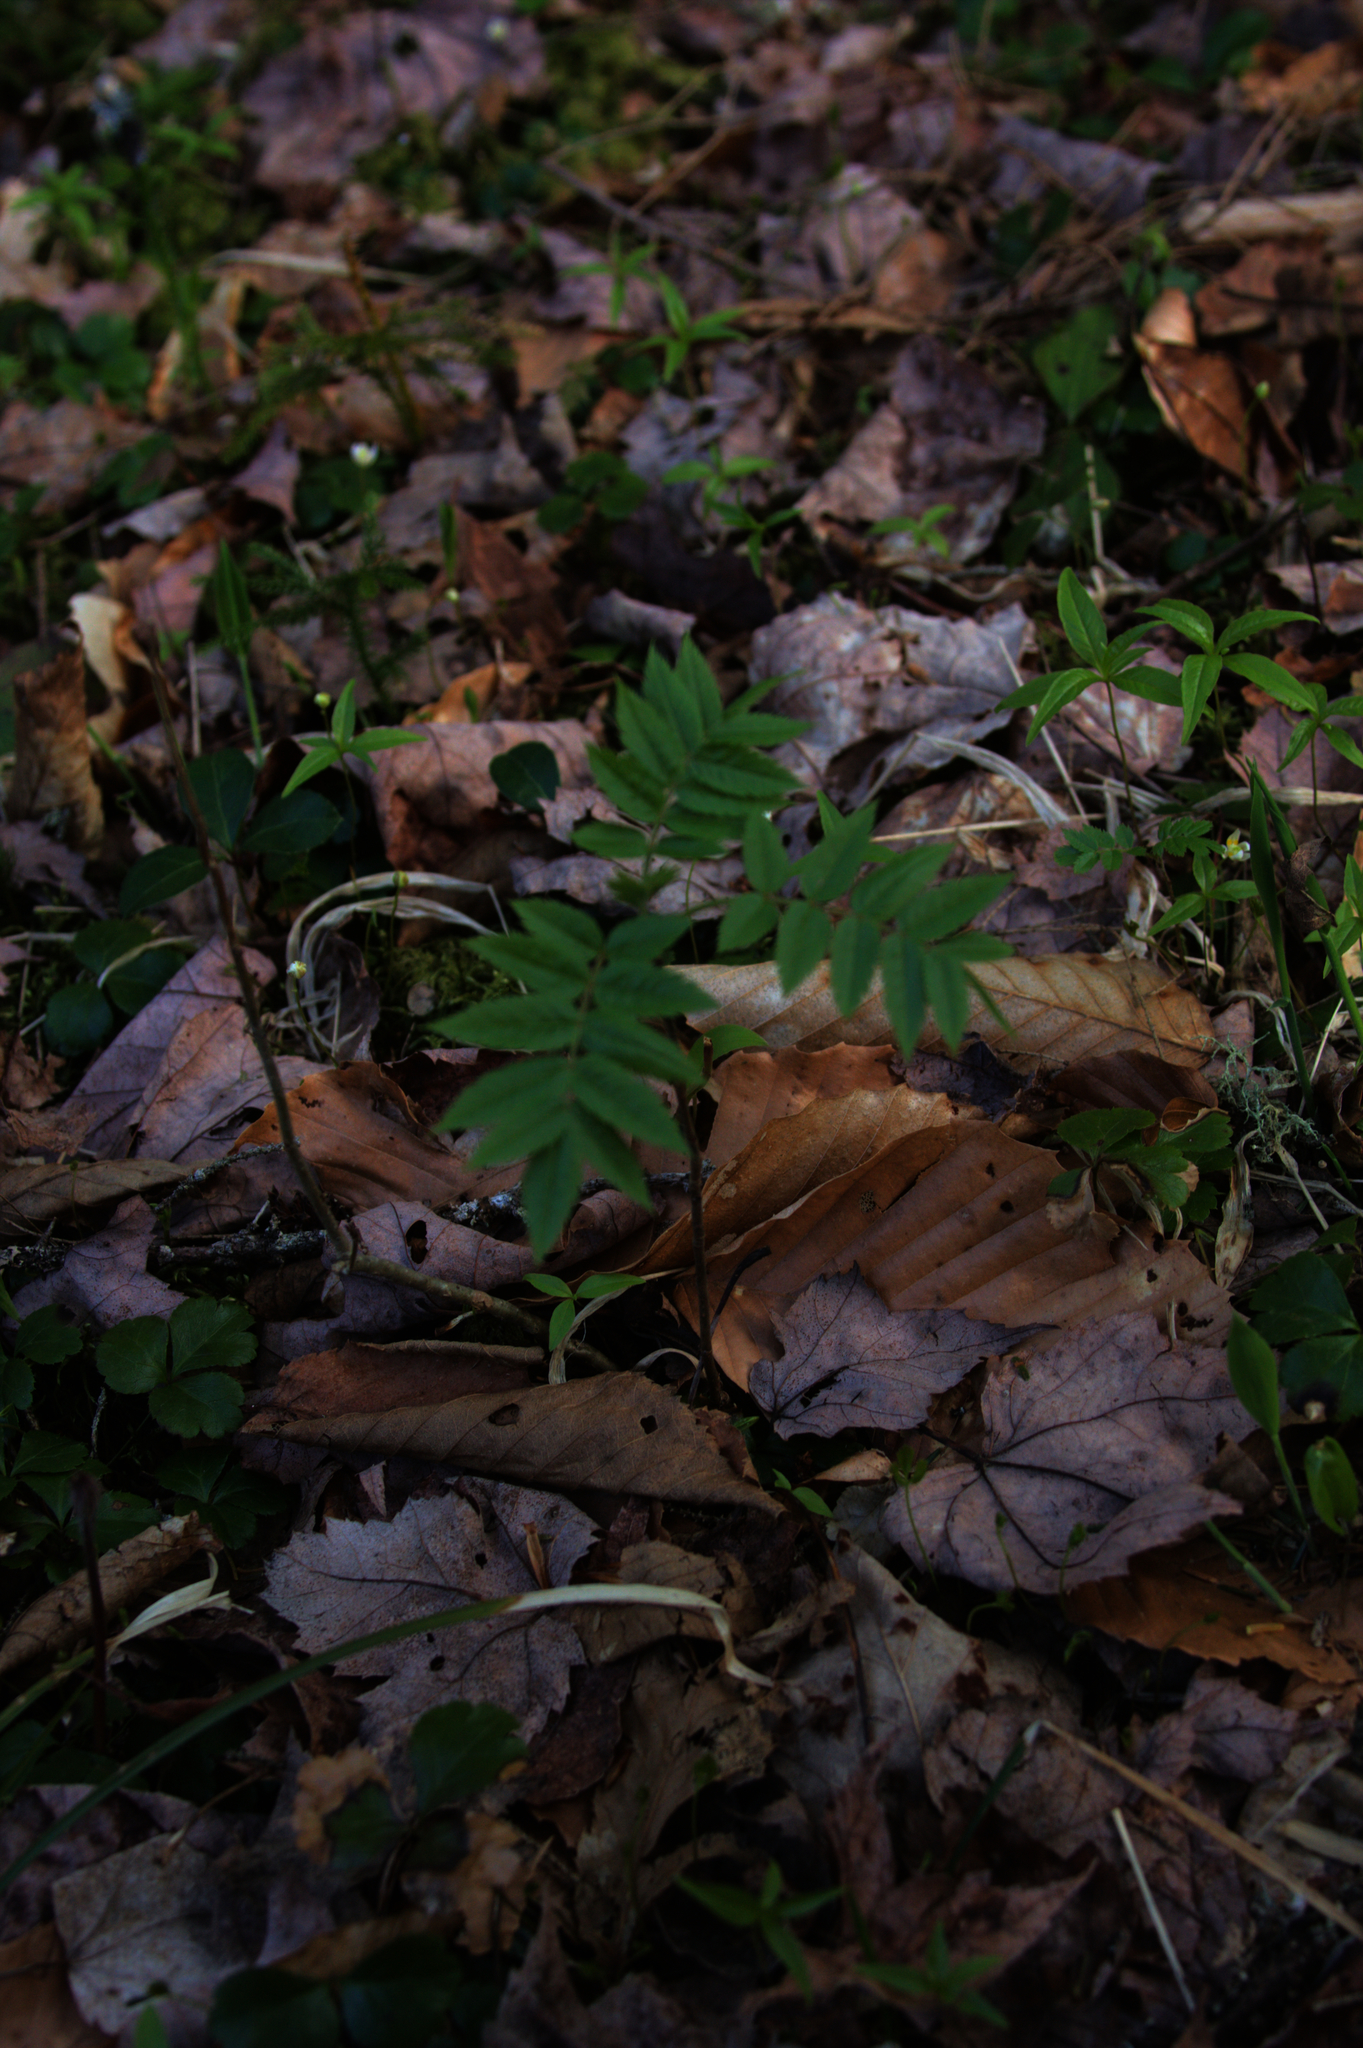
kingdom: Plantae
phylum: Tracheophyta
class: Magnoliopsida
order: Ranunculales
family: Ranunculaceae
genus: Coptis
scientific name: Coptis trifolia
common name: Canker-root
